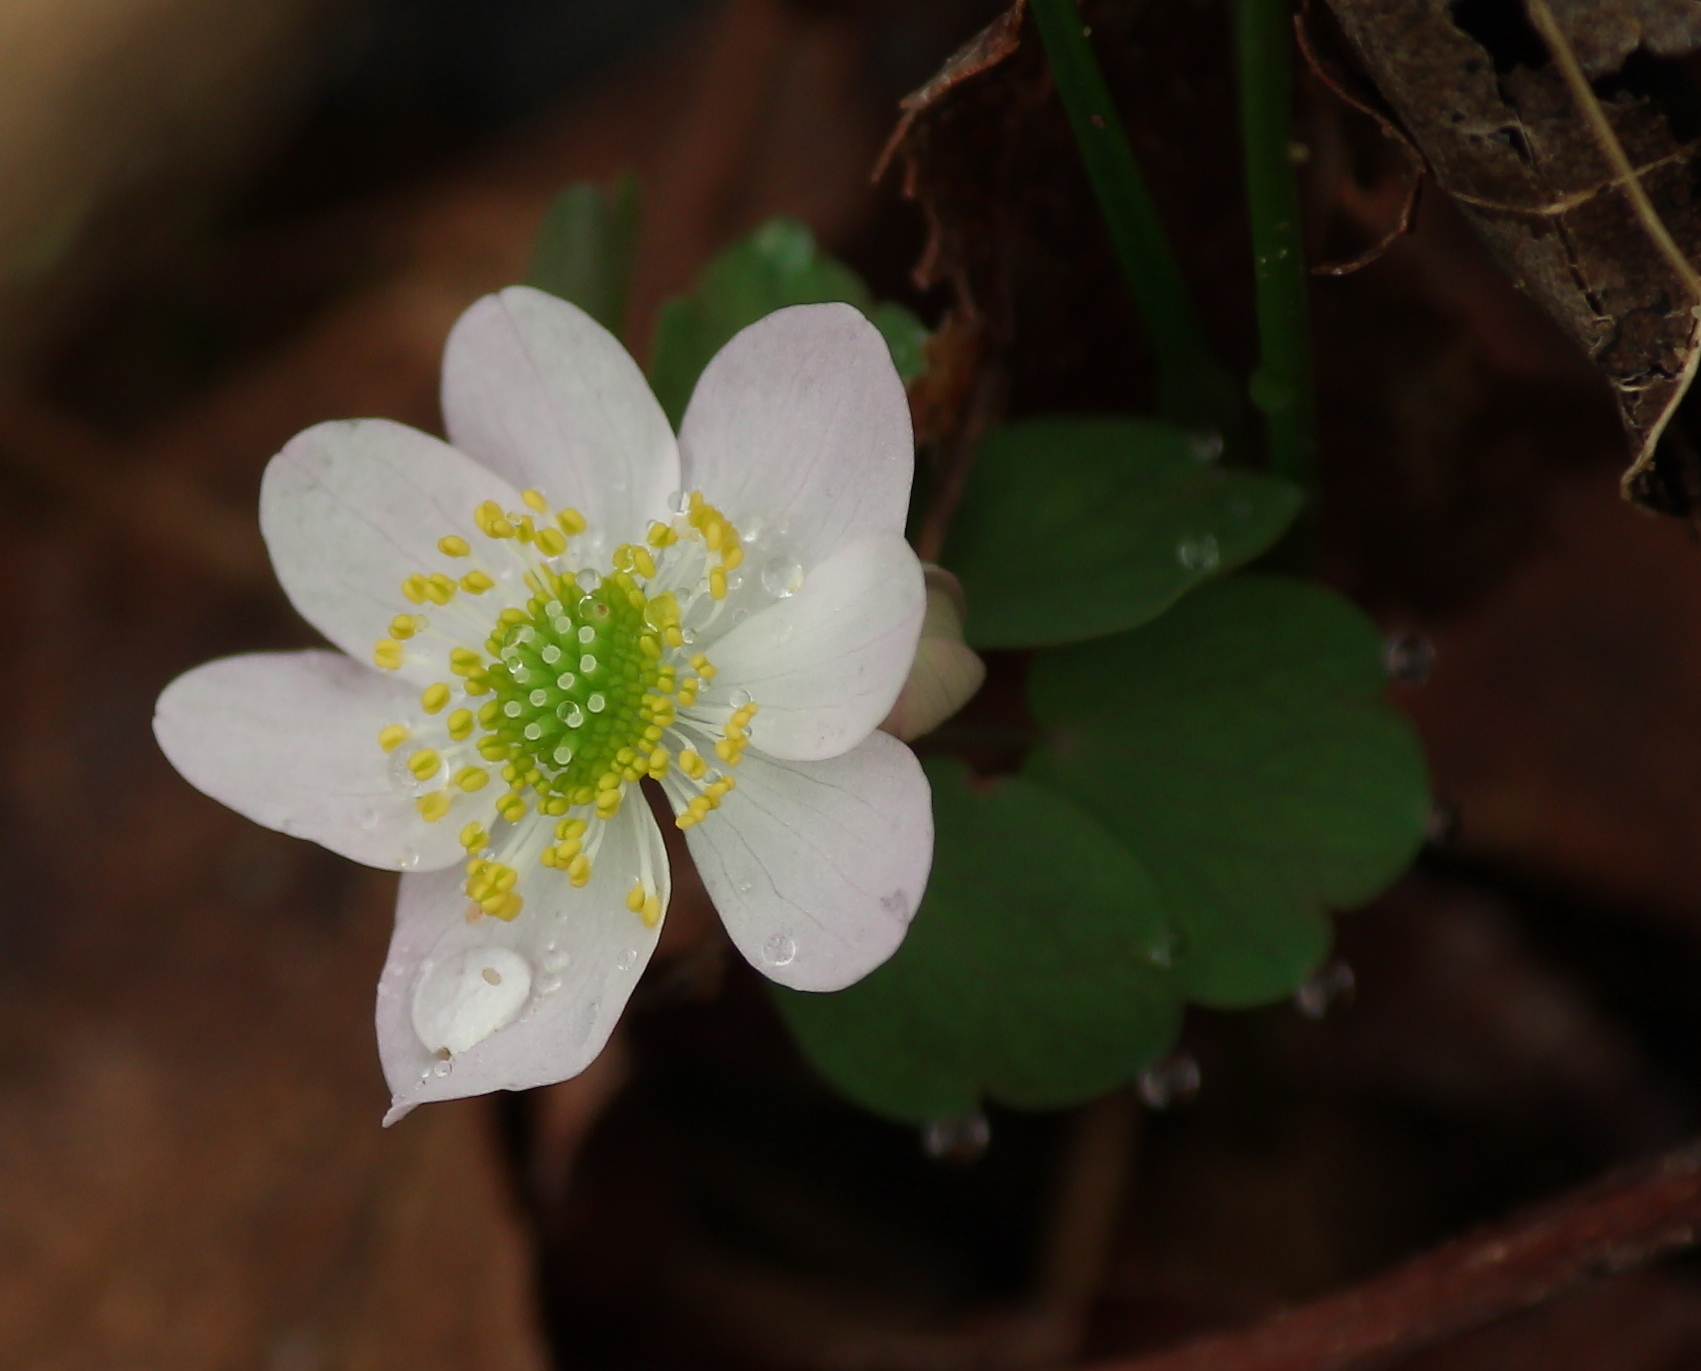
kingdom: Plantae
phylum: Tracheophyta
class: Magnoliopsida
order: Ranunculales
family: Ranunculaceae
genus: Thalictrum
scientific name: Thalictrum thalictroides
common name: Rue-anemone
